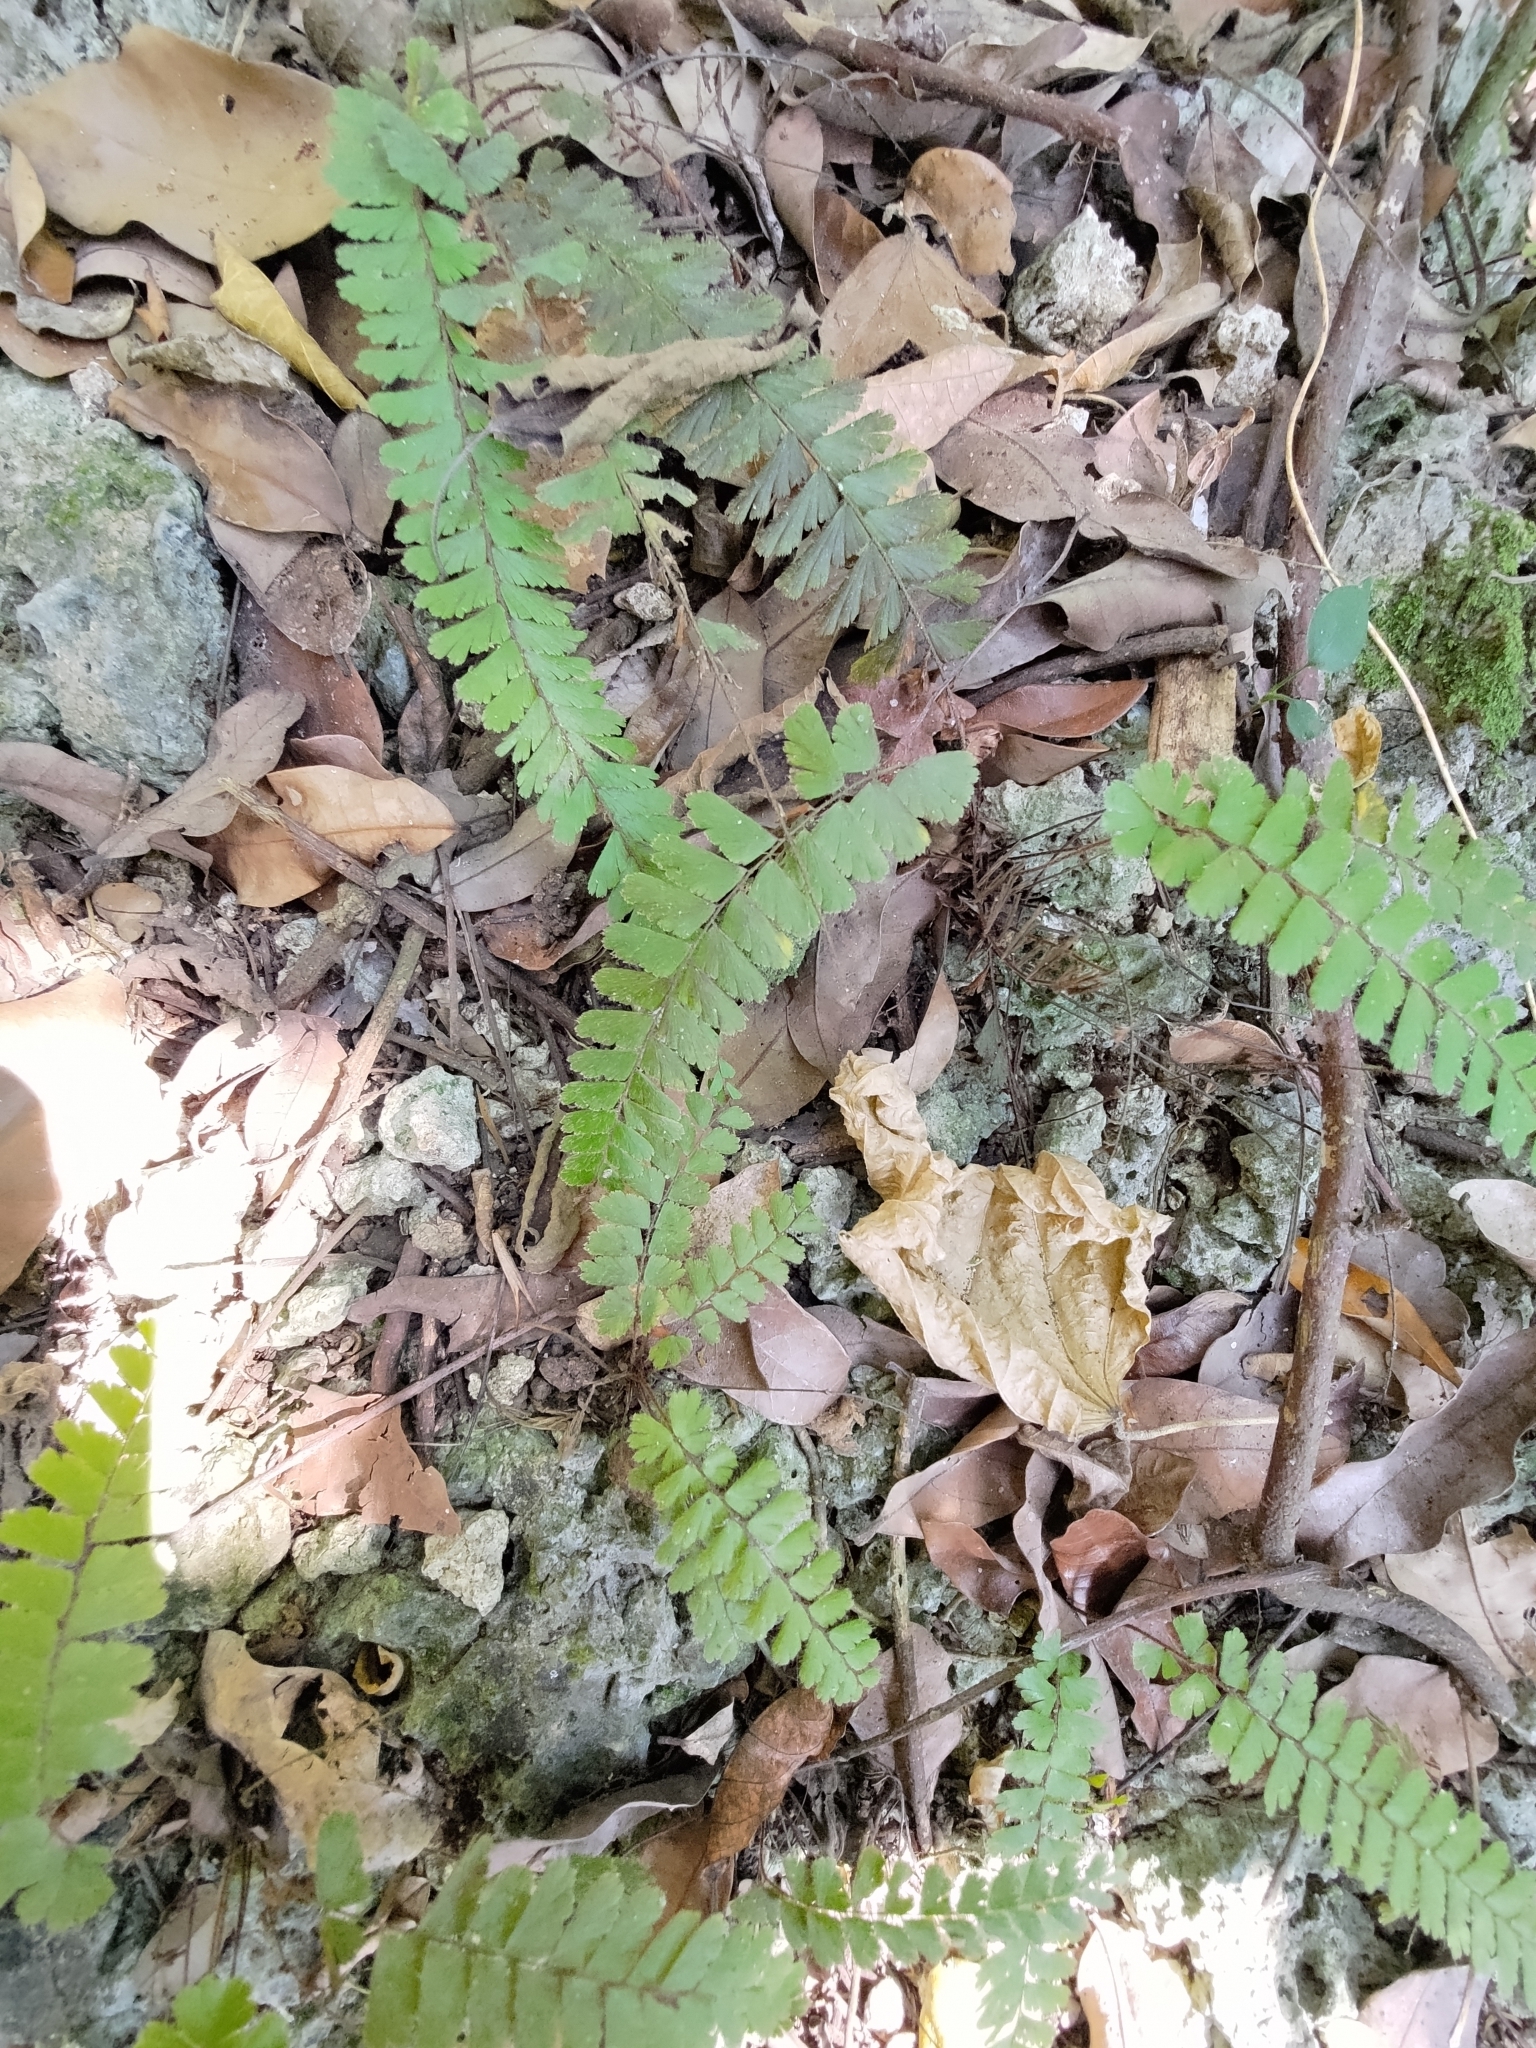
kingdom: Plantae
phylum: Tracheophyta
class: Polypodiopsida
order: Polypodiales
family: Pteridaceae
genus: Adiantum
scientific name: Adiantum caudatum
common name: Tailed maidenhair
